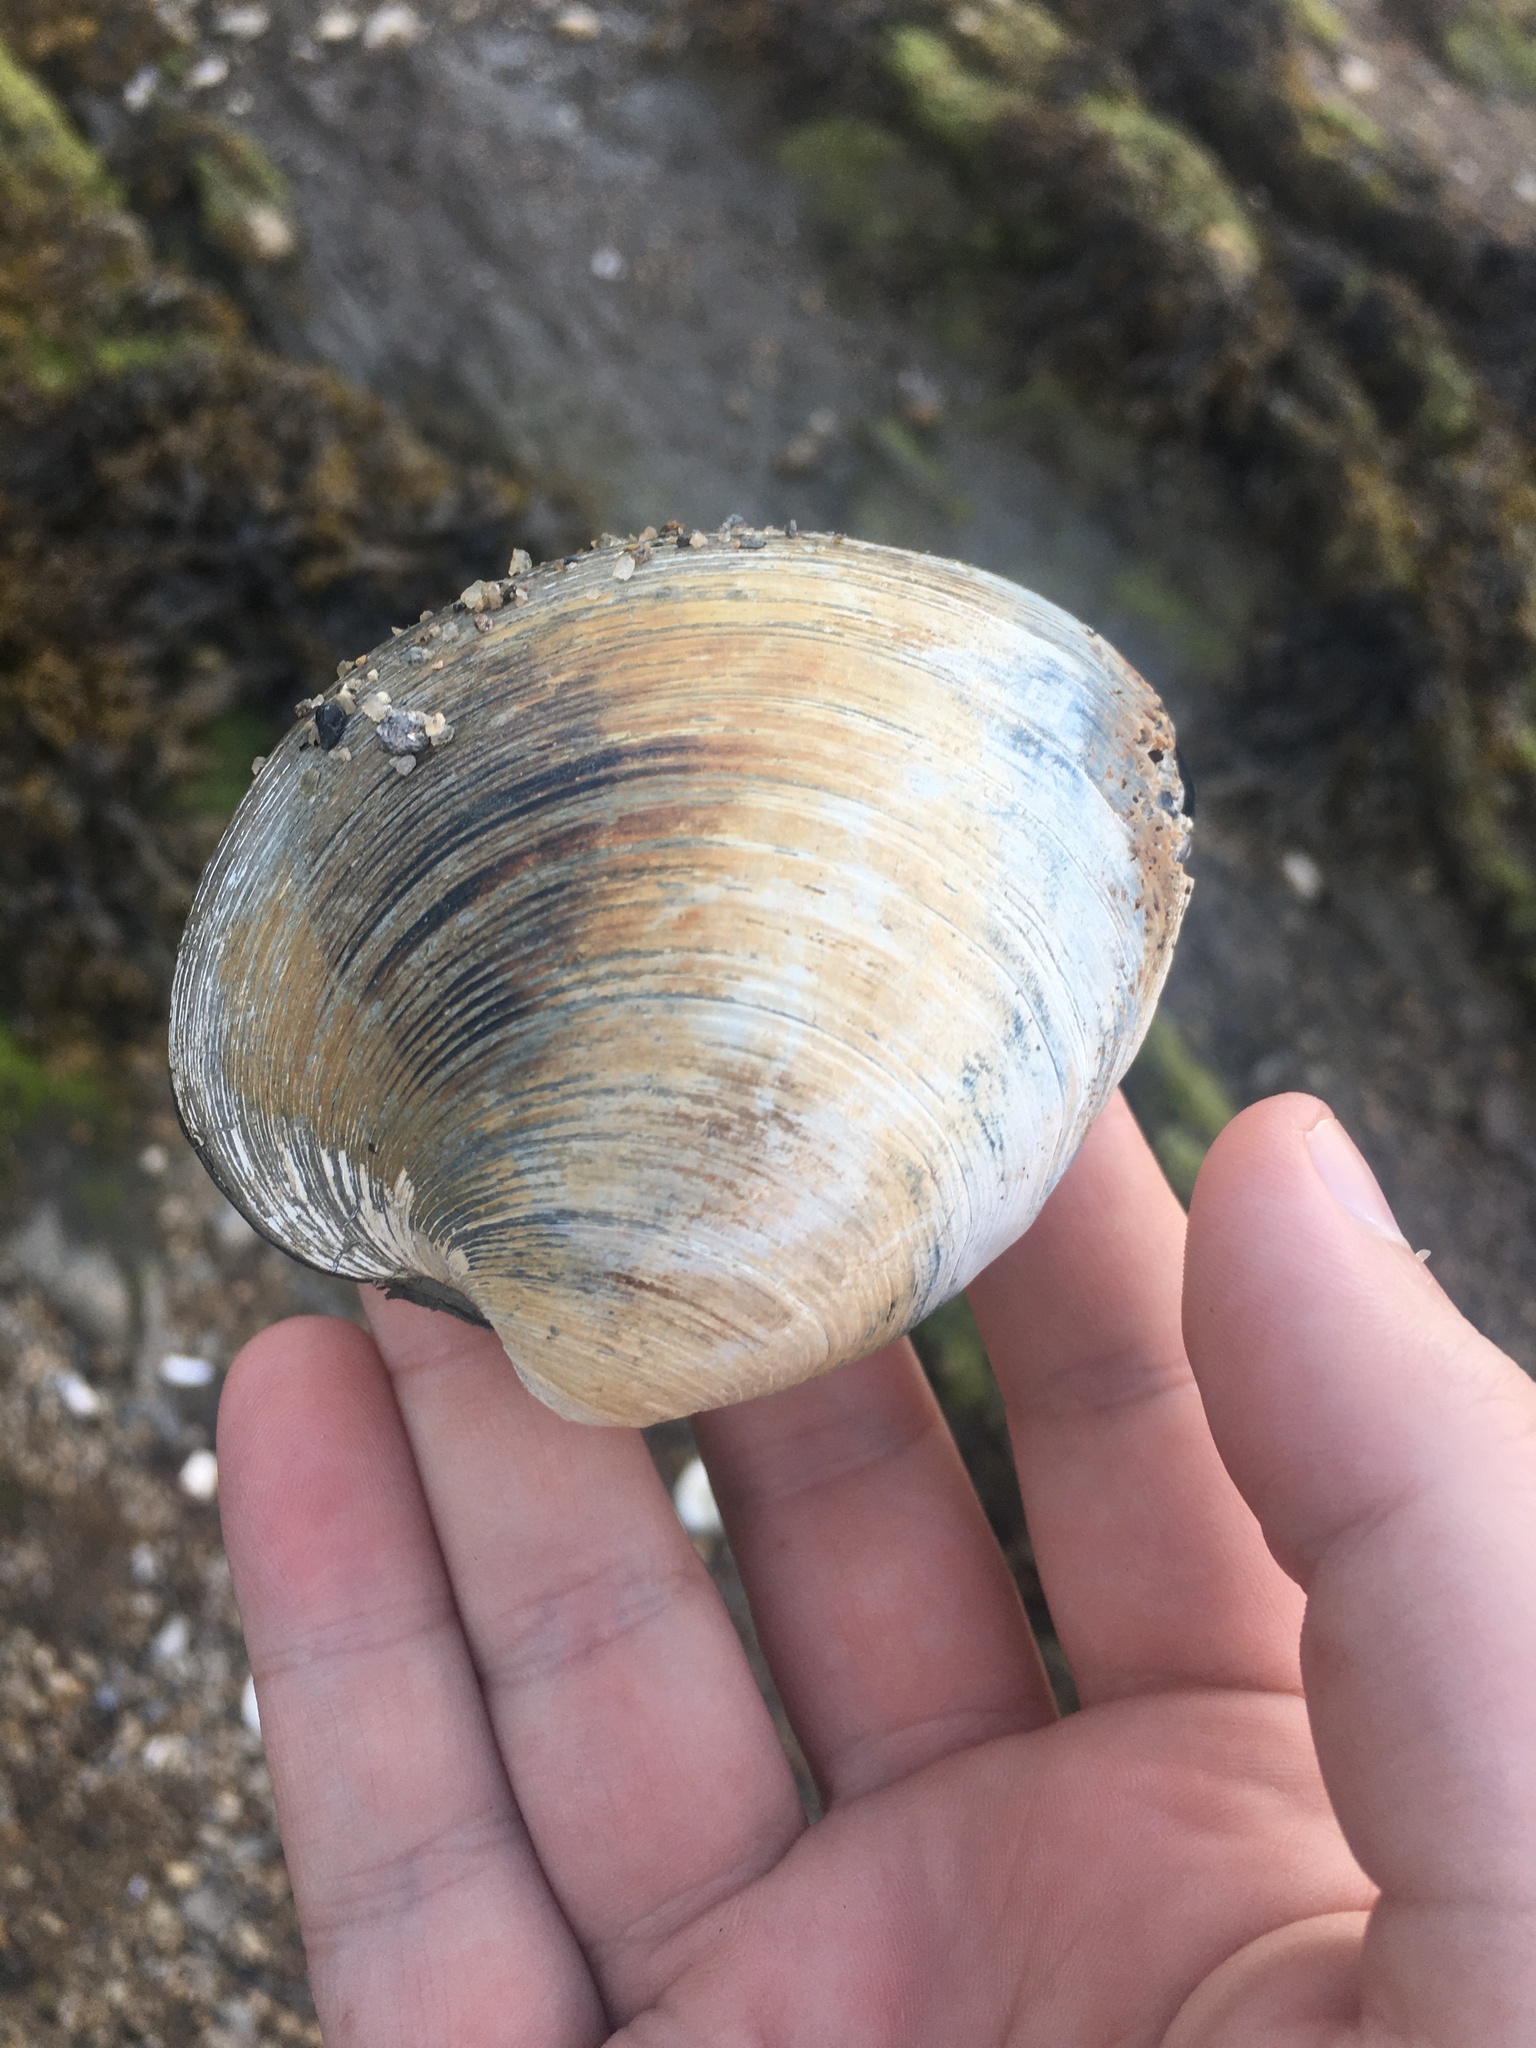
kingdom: Animalia
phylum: Mollusca
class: Bivalvia
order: Venerida
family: Veneridae
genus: Mercenaria
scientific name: Mercenaria mercenaria
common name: American hard-shelled clam
